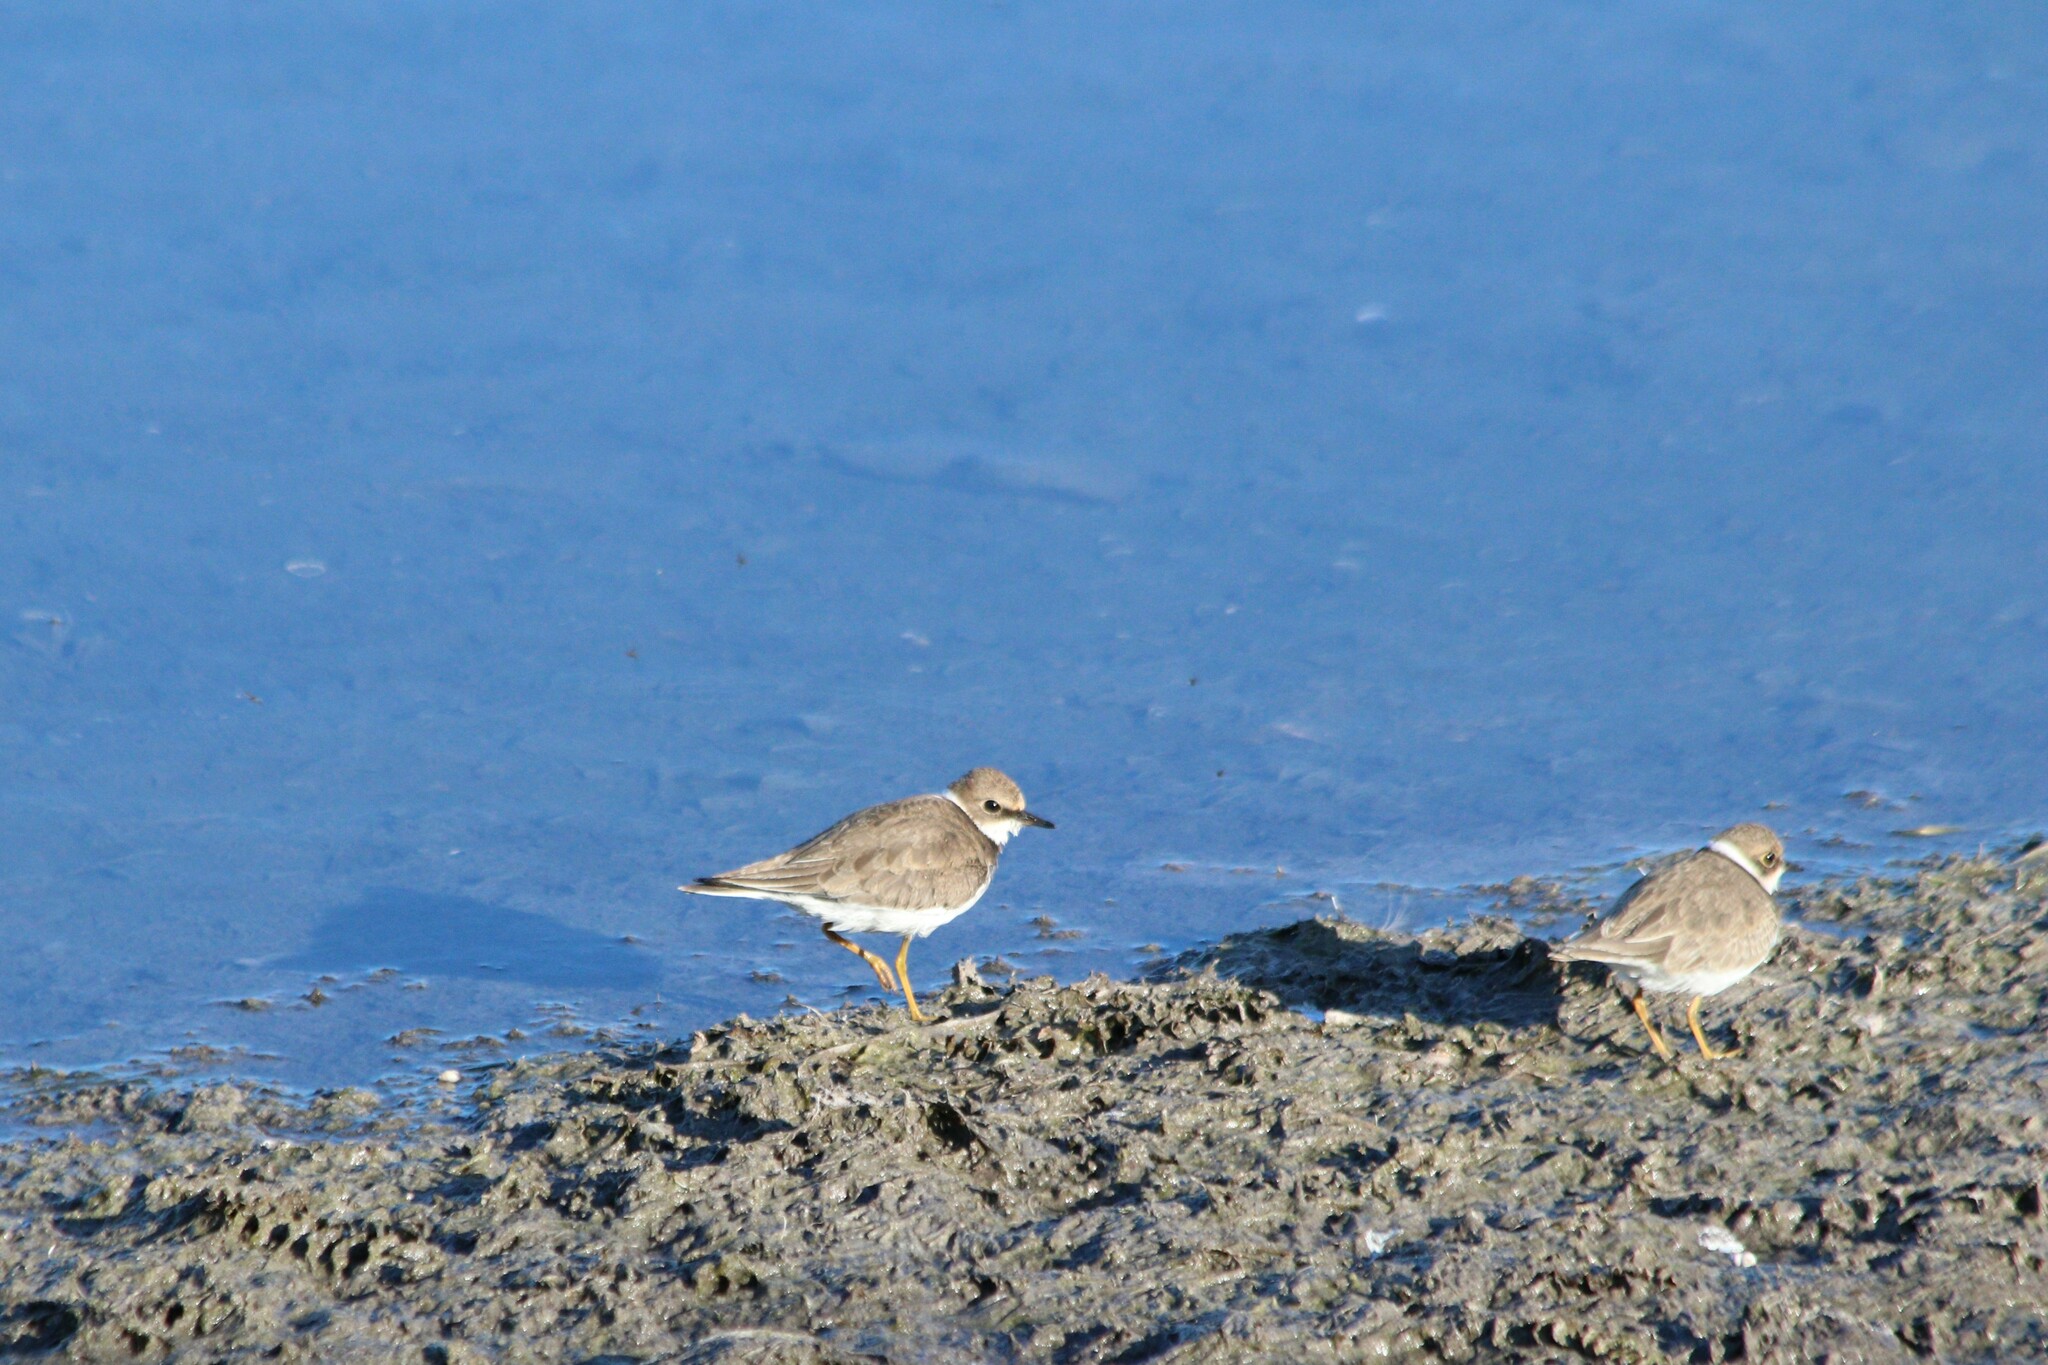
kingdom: Animalia
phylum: Chordata
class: Aves
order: Charadriiformes
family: Charadriidae
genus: Charadrius
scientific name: Charadrius dubius
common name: Little ringed plover
